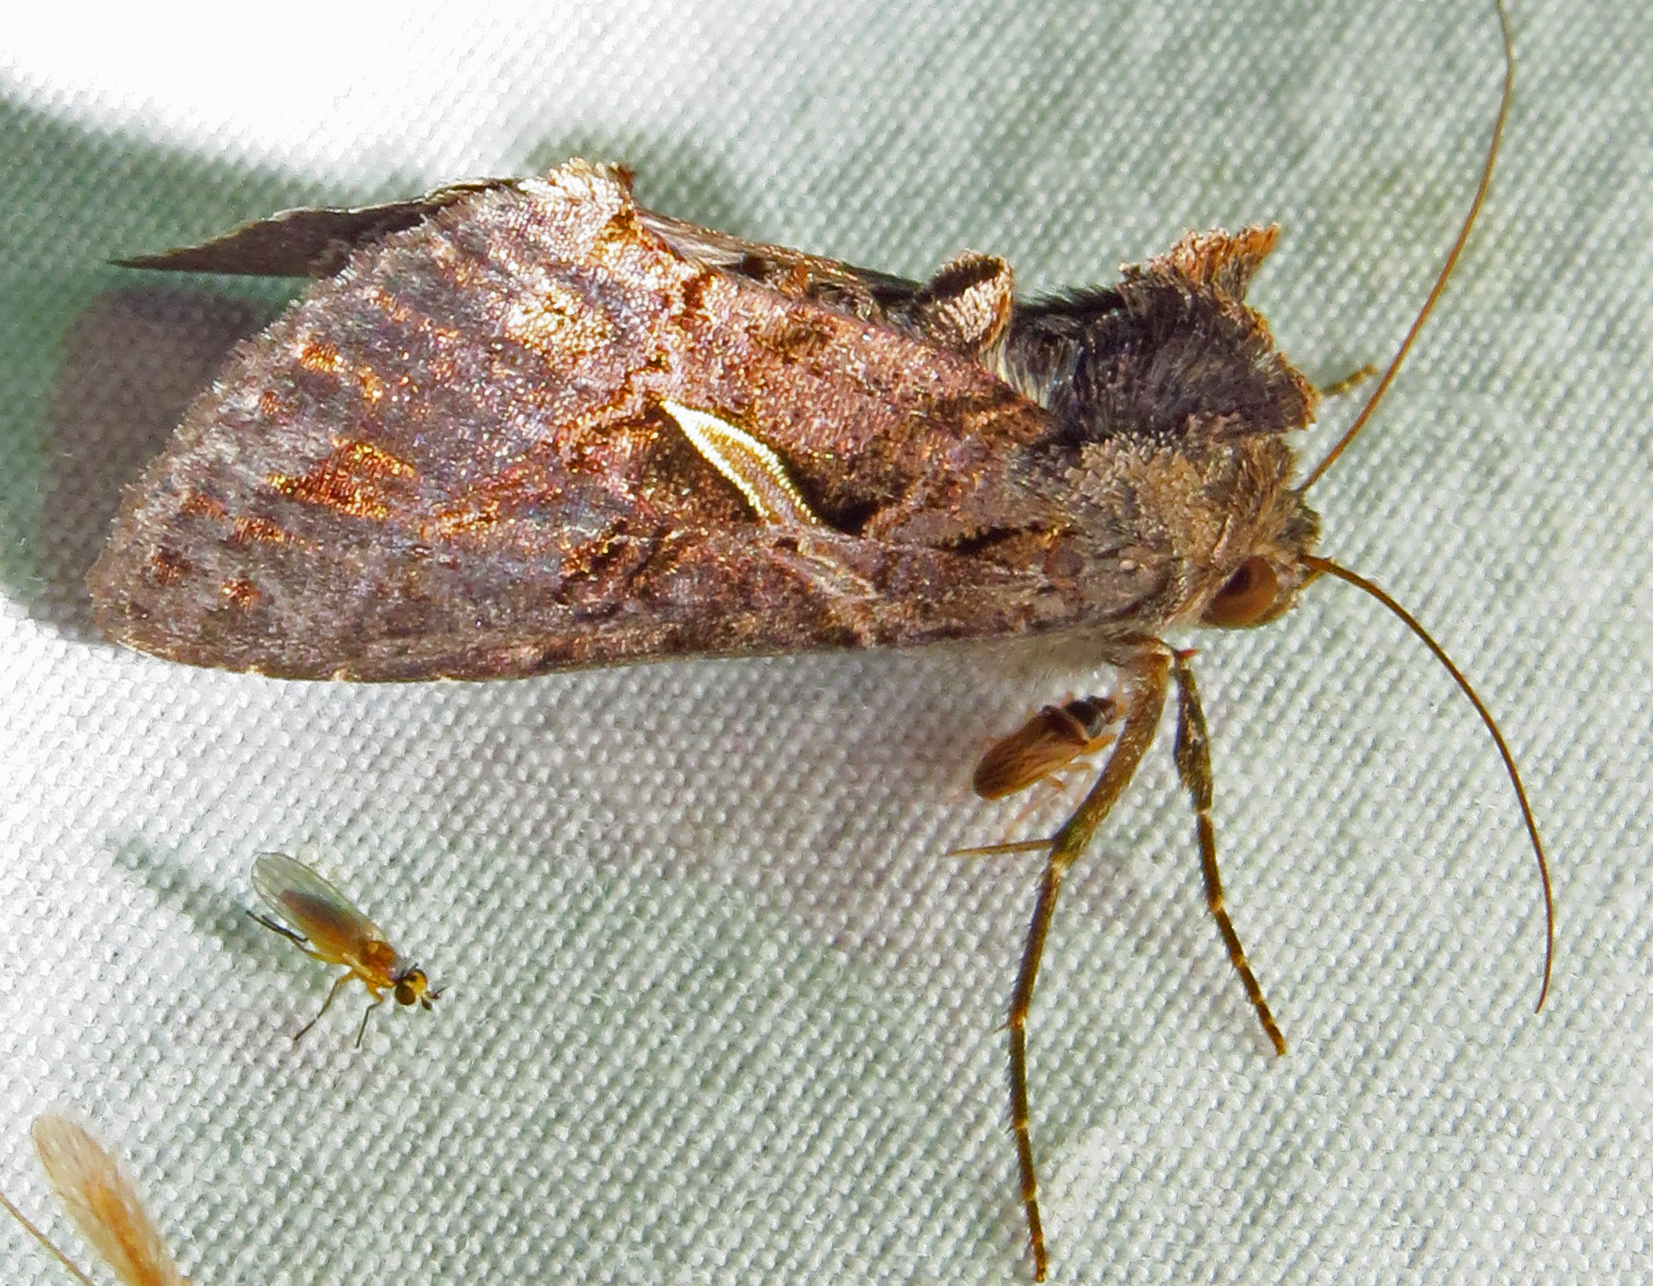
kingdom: Animalia
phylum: Arthropoda
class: Insecta
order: Lepidoptera
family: Noctuidae
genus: Ctenoplusia
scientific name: Ctenoplusia oxygramma
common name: Sharp-stigma looper moth
